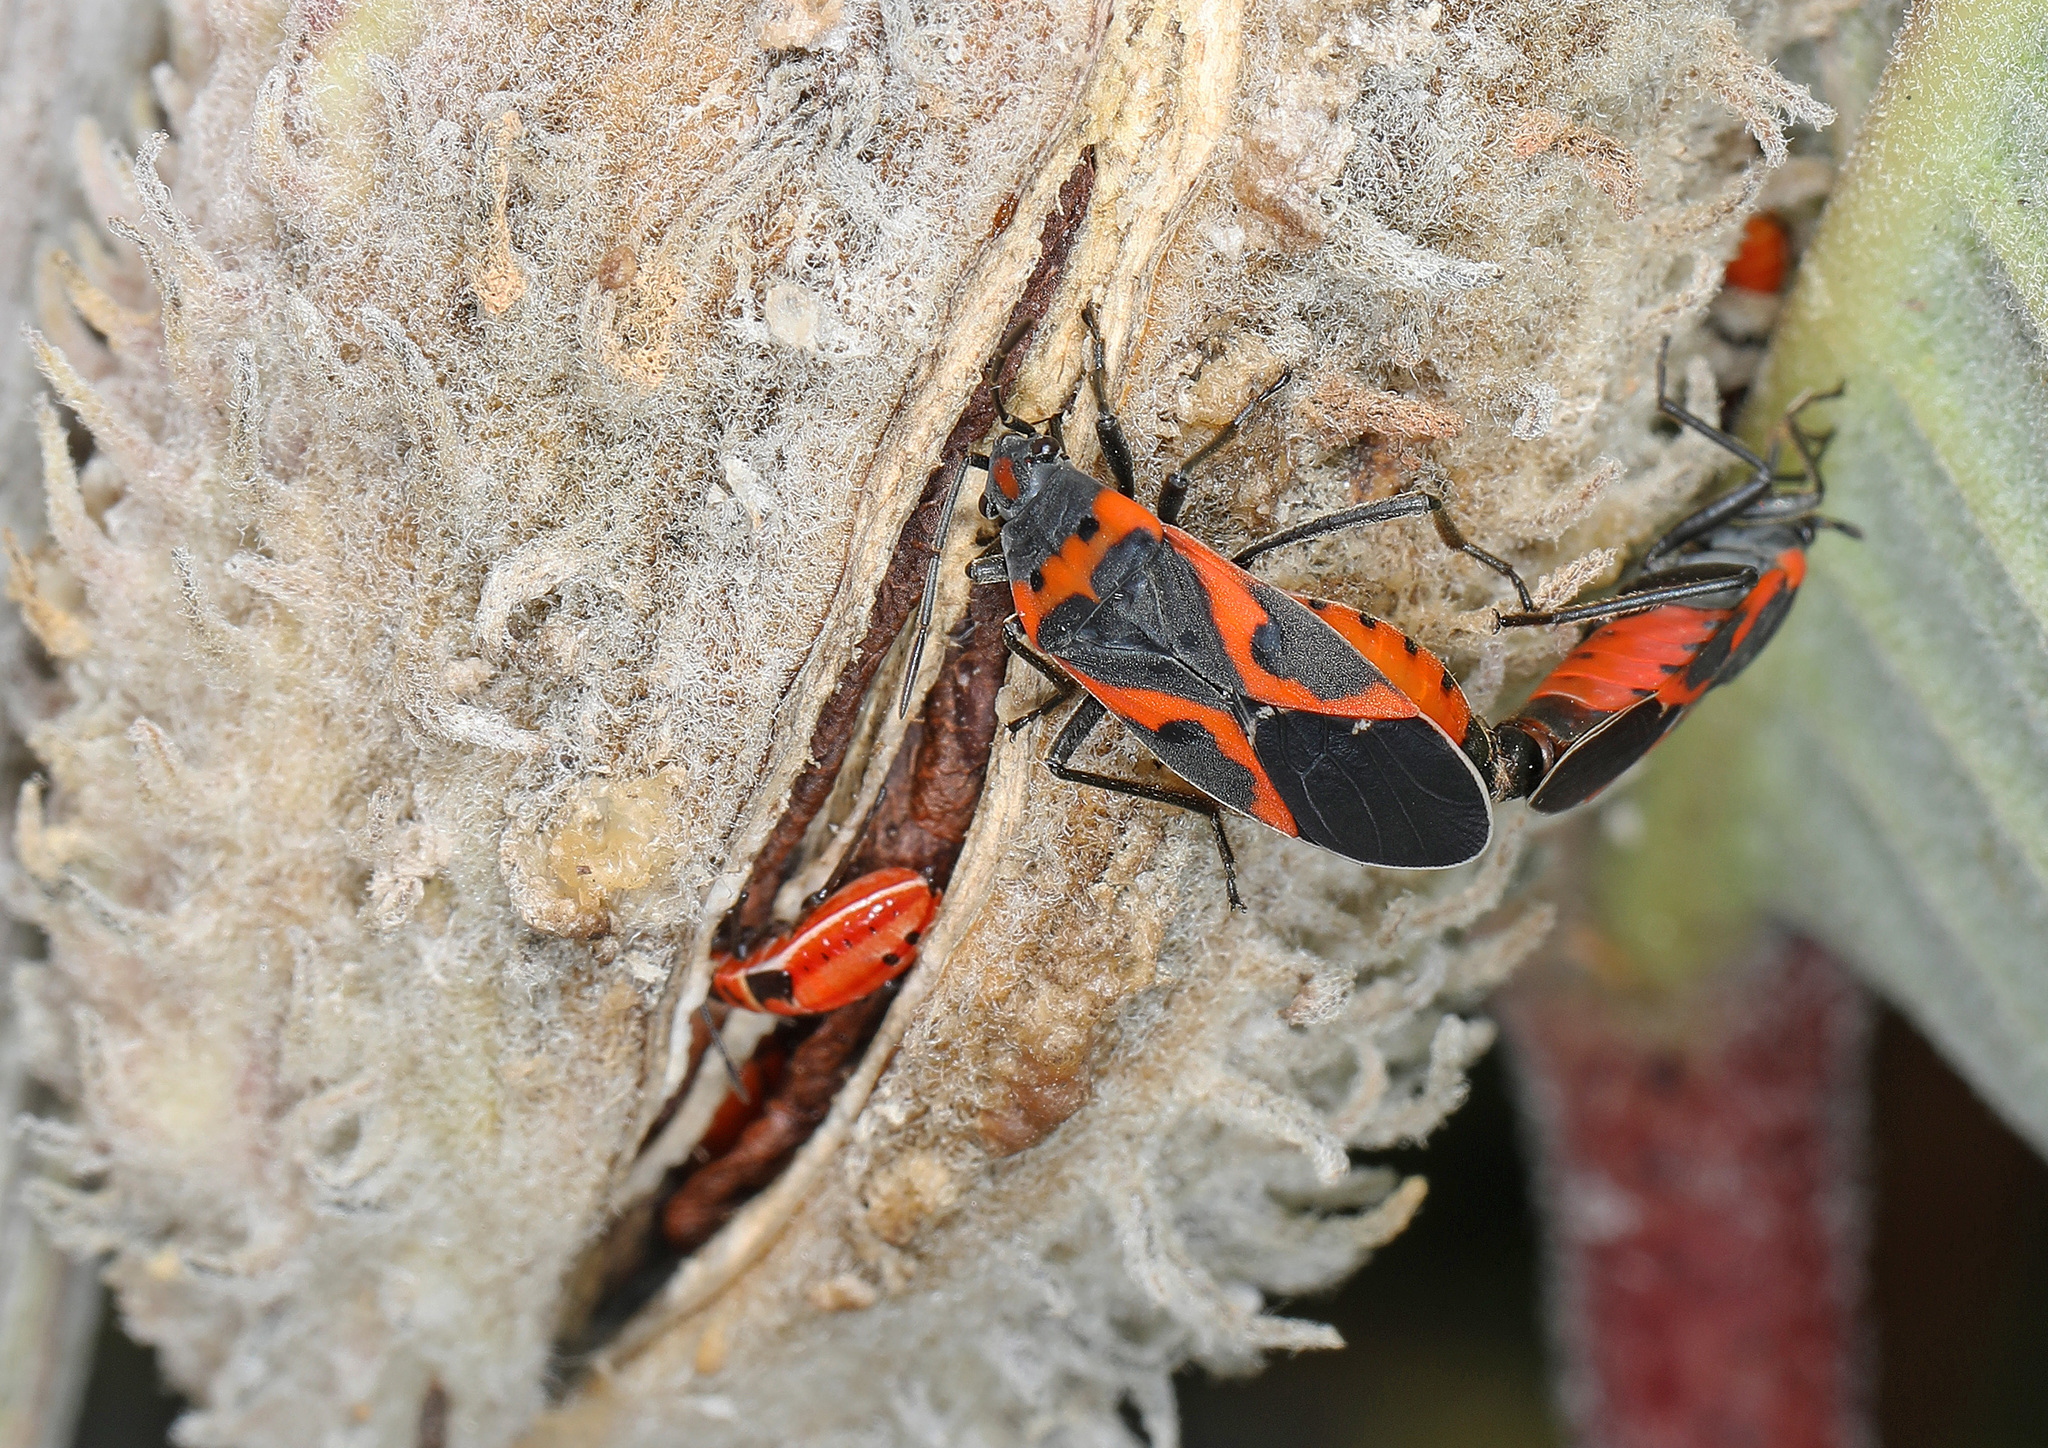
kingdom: Animalia
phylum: Arthropoda
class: Insecta
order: Hemiptera
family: Lygaeidae
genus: Lygaeus
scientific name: Lygaeus kalmii
